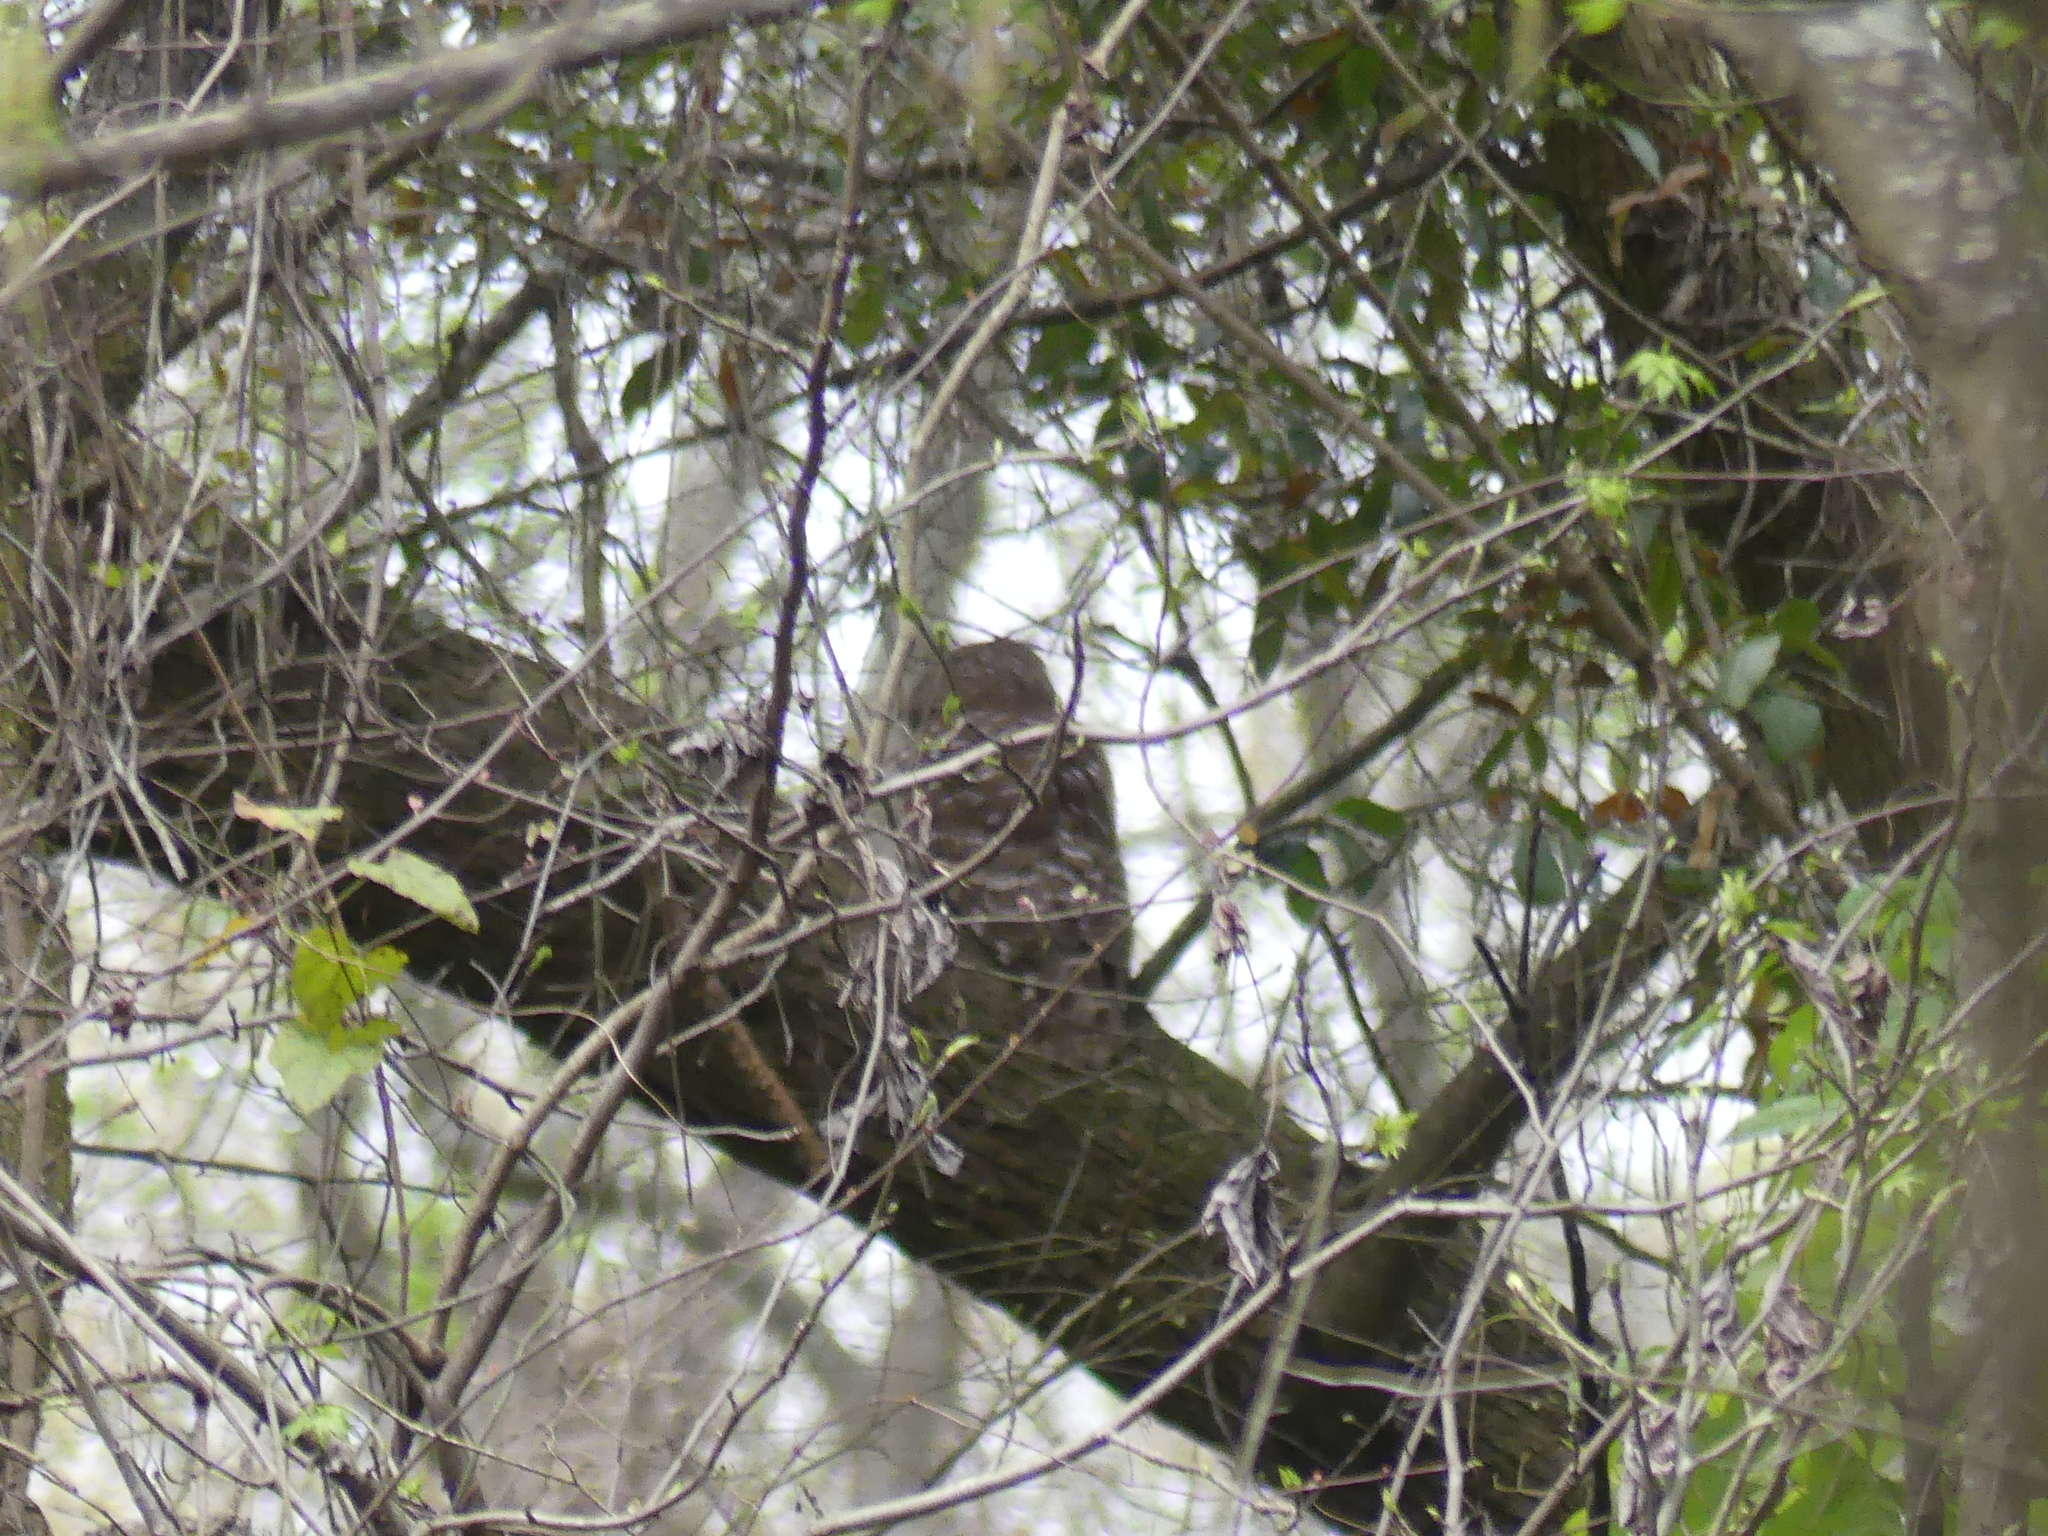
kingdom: Animalia
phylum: Chordata
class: Aves
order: Strigiformes
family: Strigidae
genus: Strix
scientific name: Strix varia
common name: Barred owl
